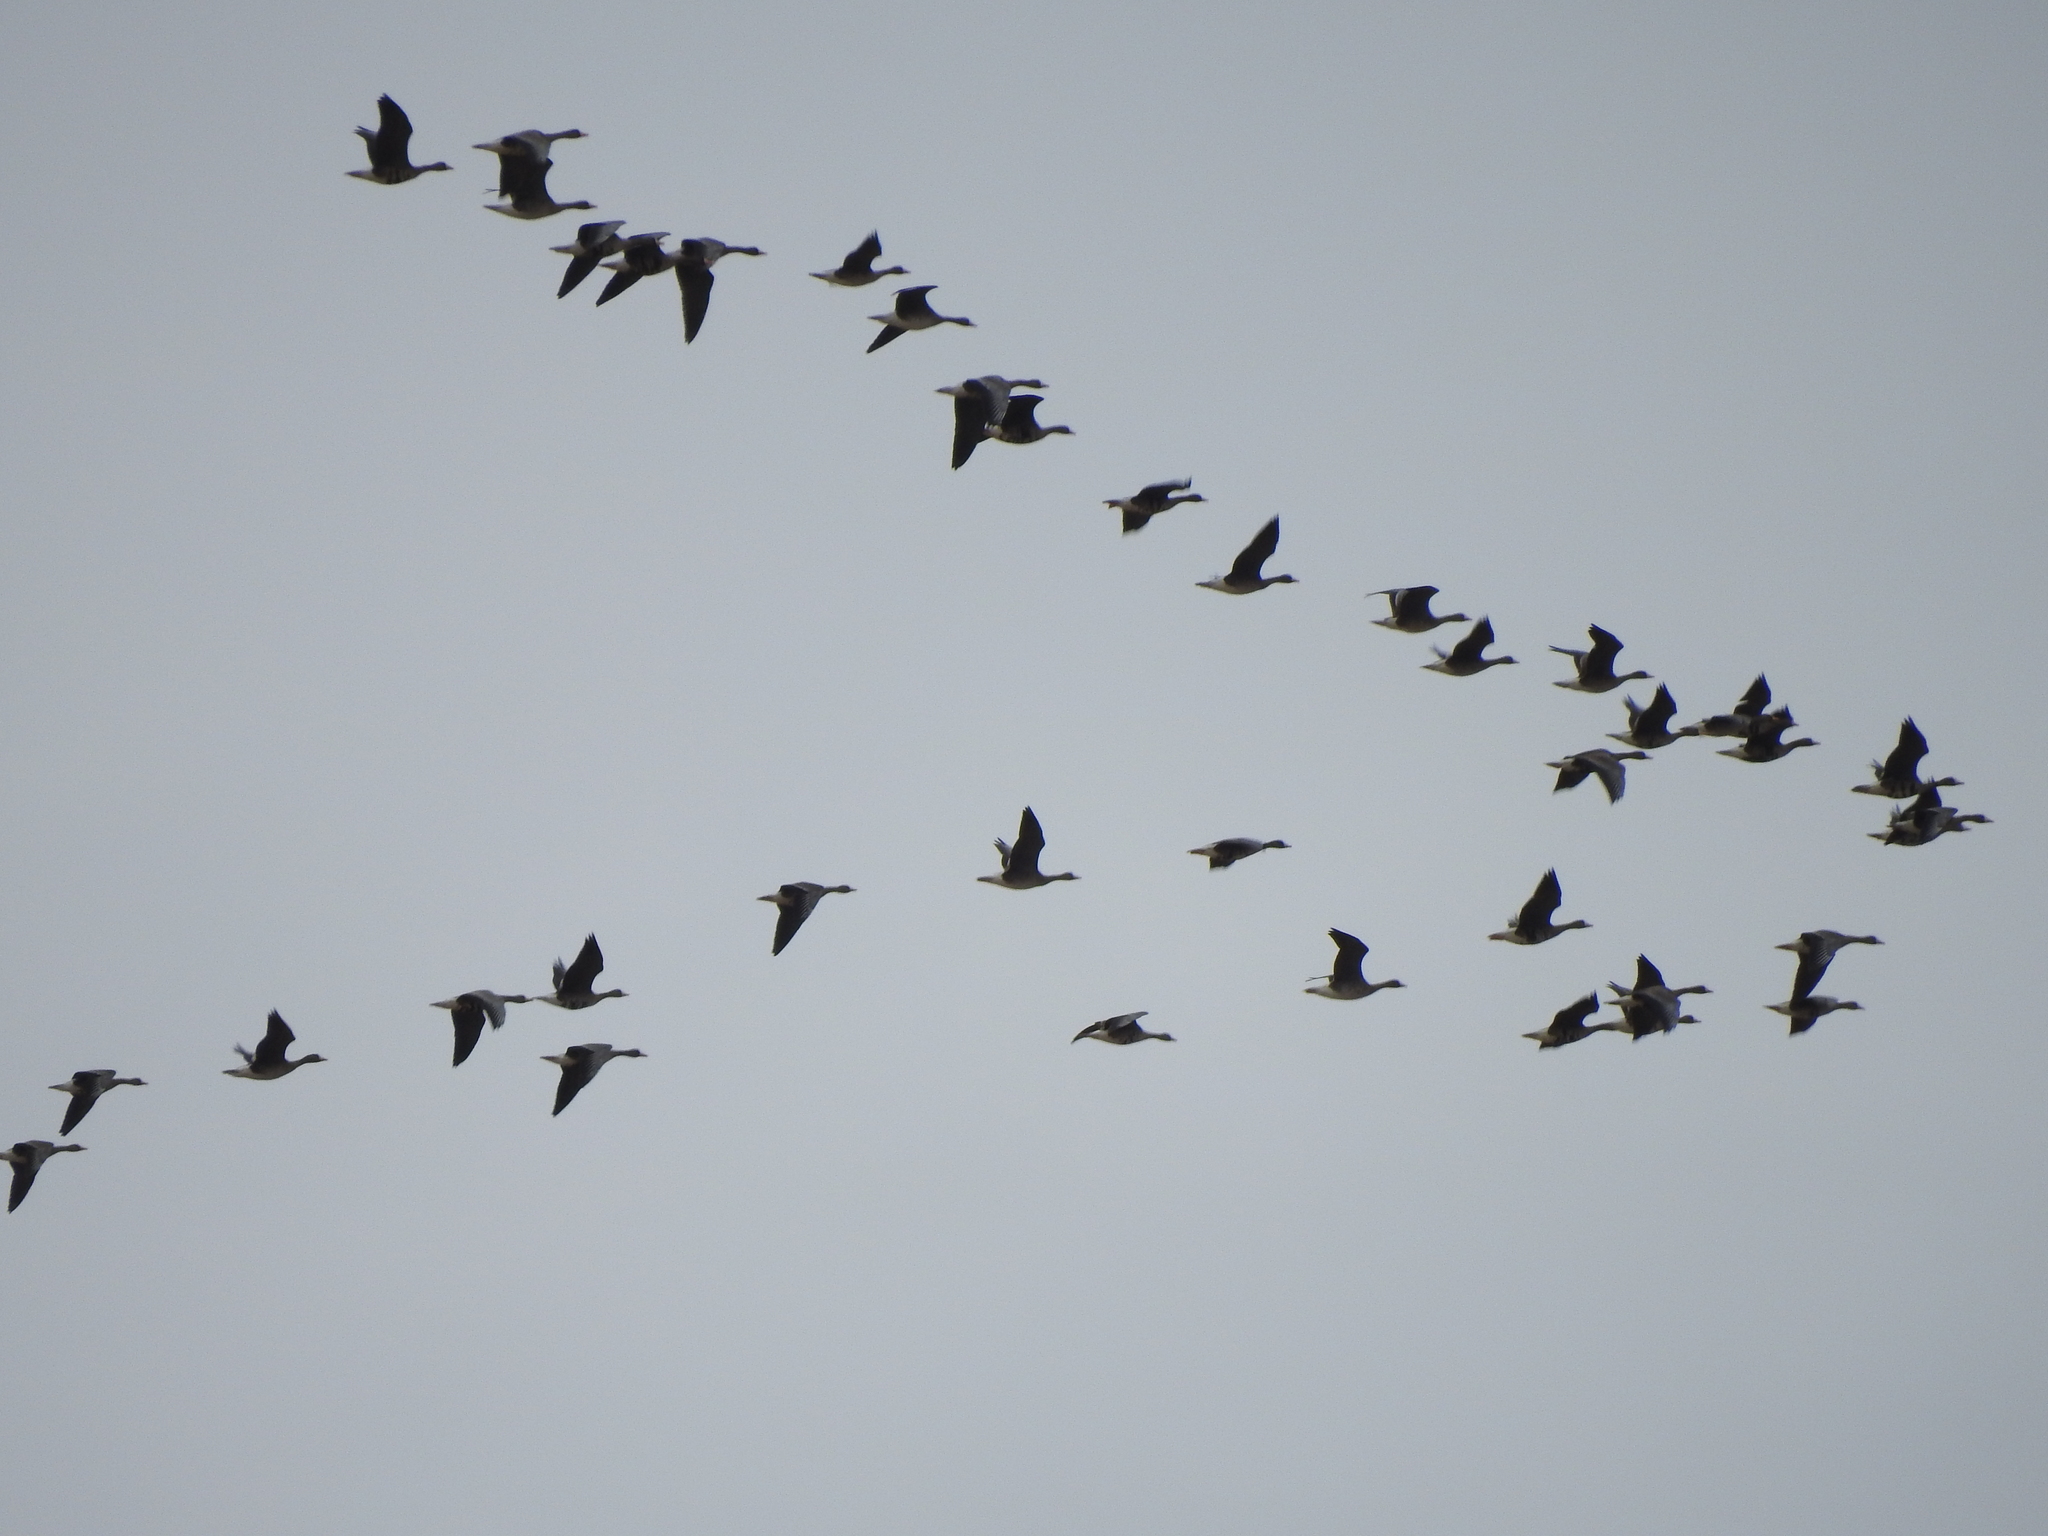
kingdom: Animalia
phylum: Chordata
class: Aves
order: Anseriformes
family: Anatidae
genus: Anser
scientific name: Anser albifrons
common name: Greater white-fronted goose
